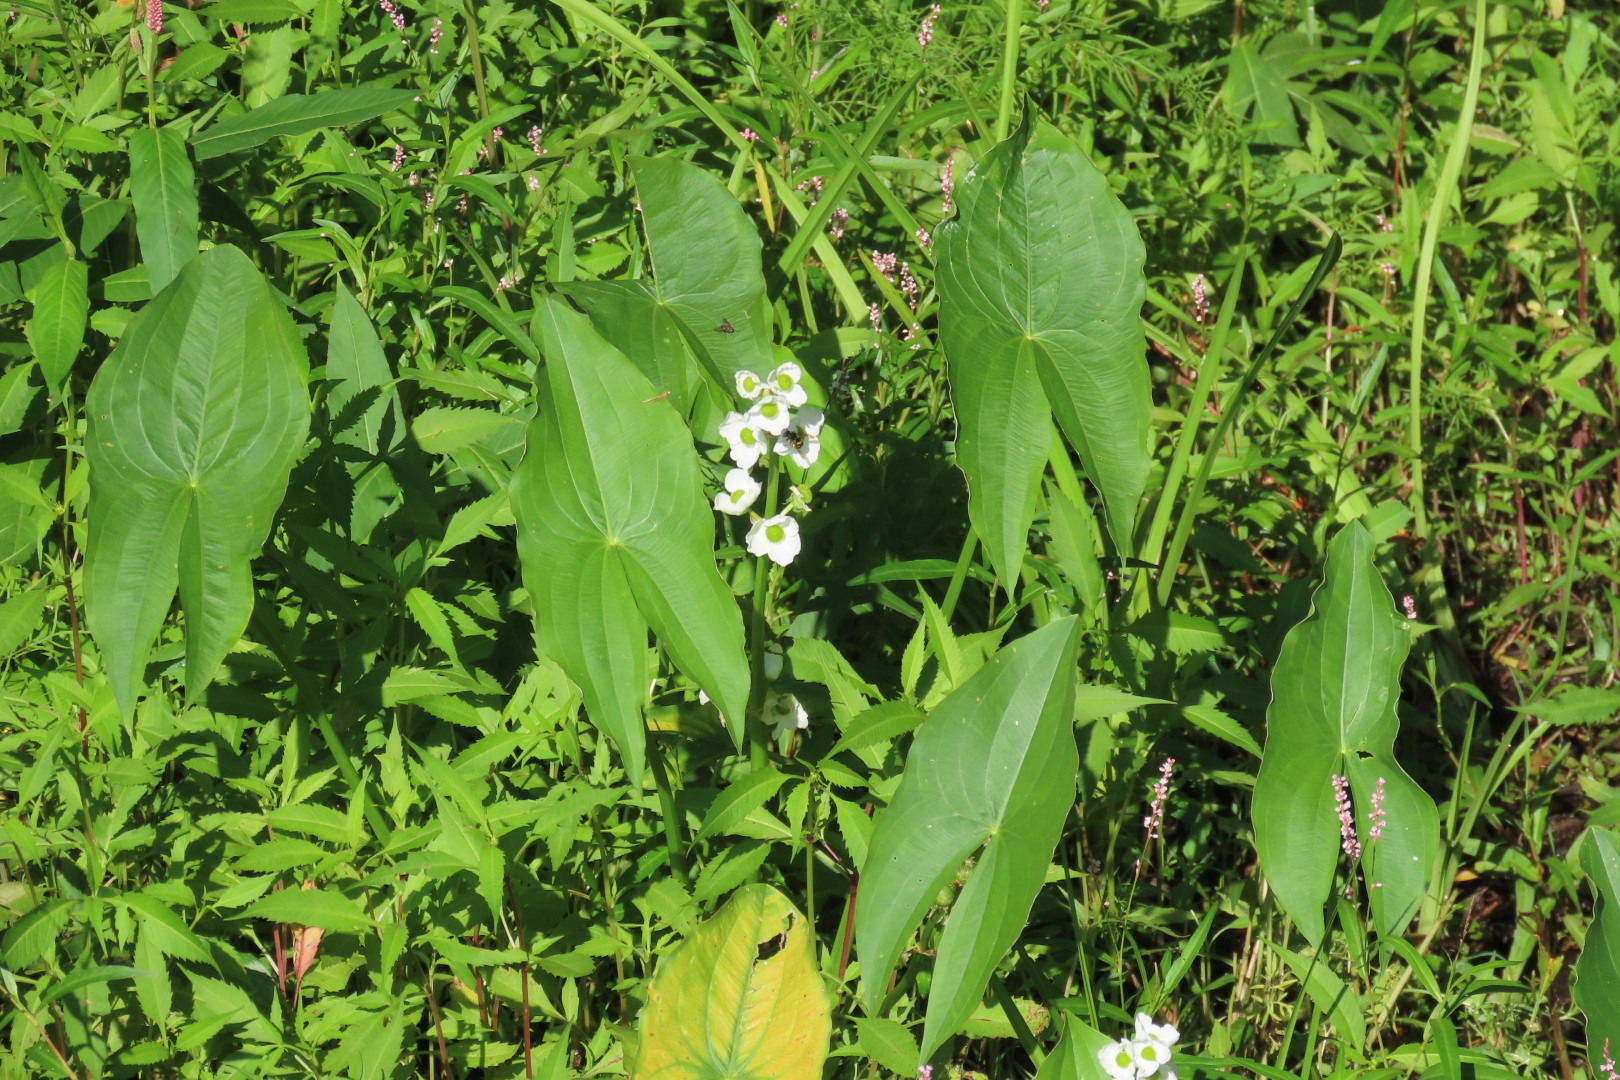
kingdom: Plantae
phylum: Tracheophyta
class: Liliopsida
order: Alismatales
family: Alismataceae
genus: Sagittaria
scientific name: Sagittaria latifolia
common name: Duck-potato
